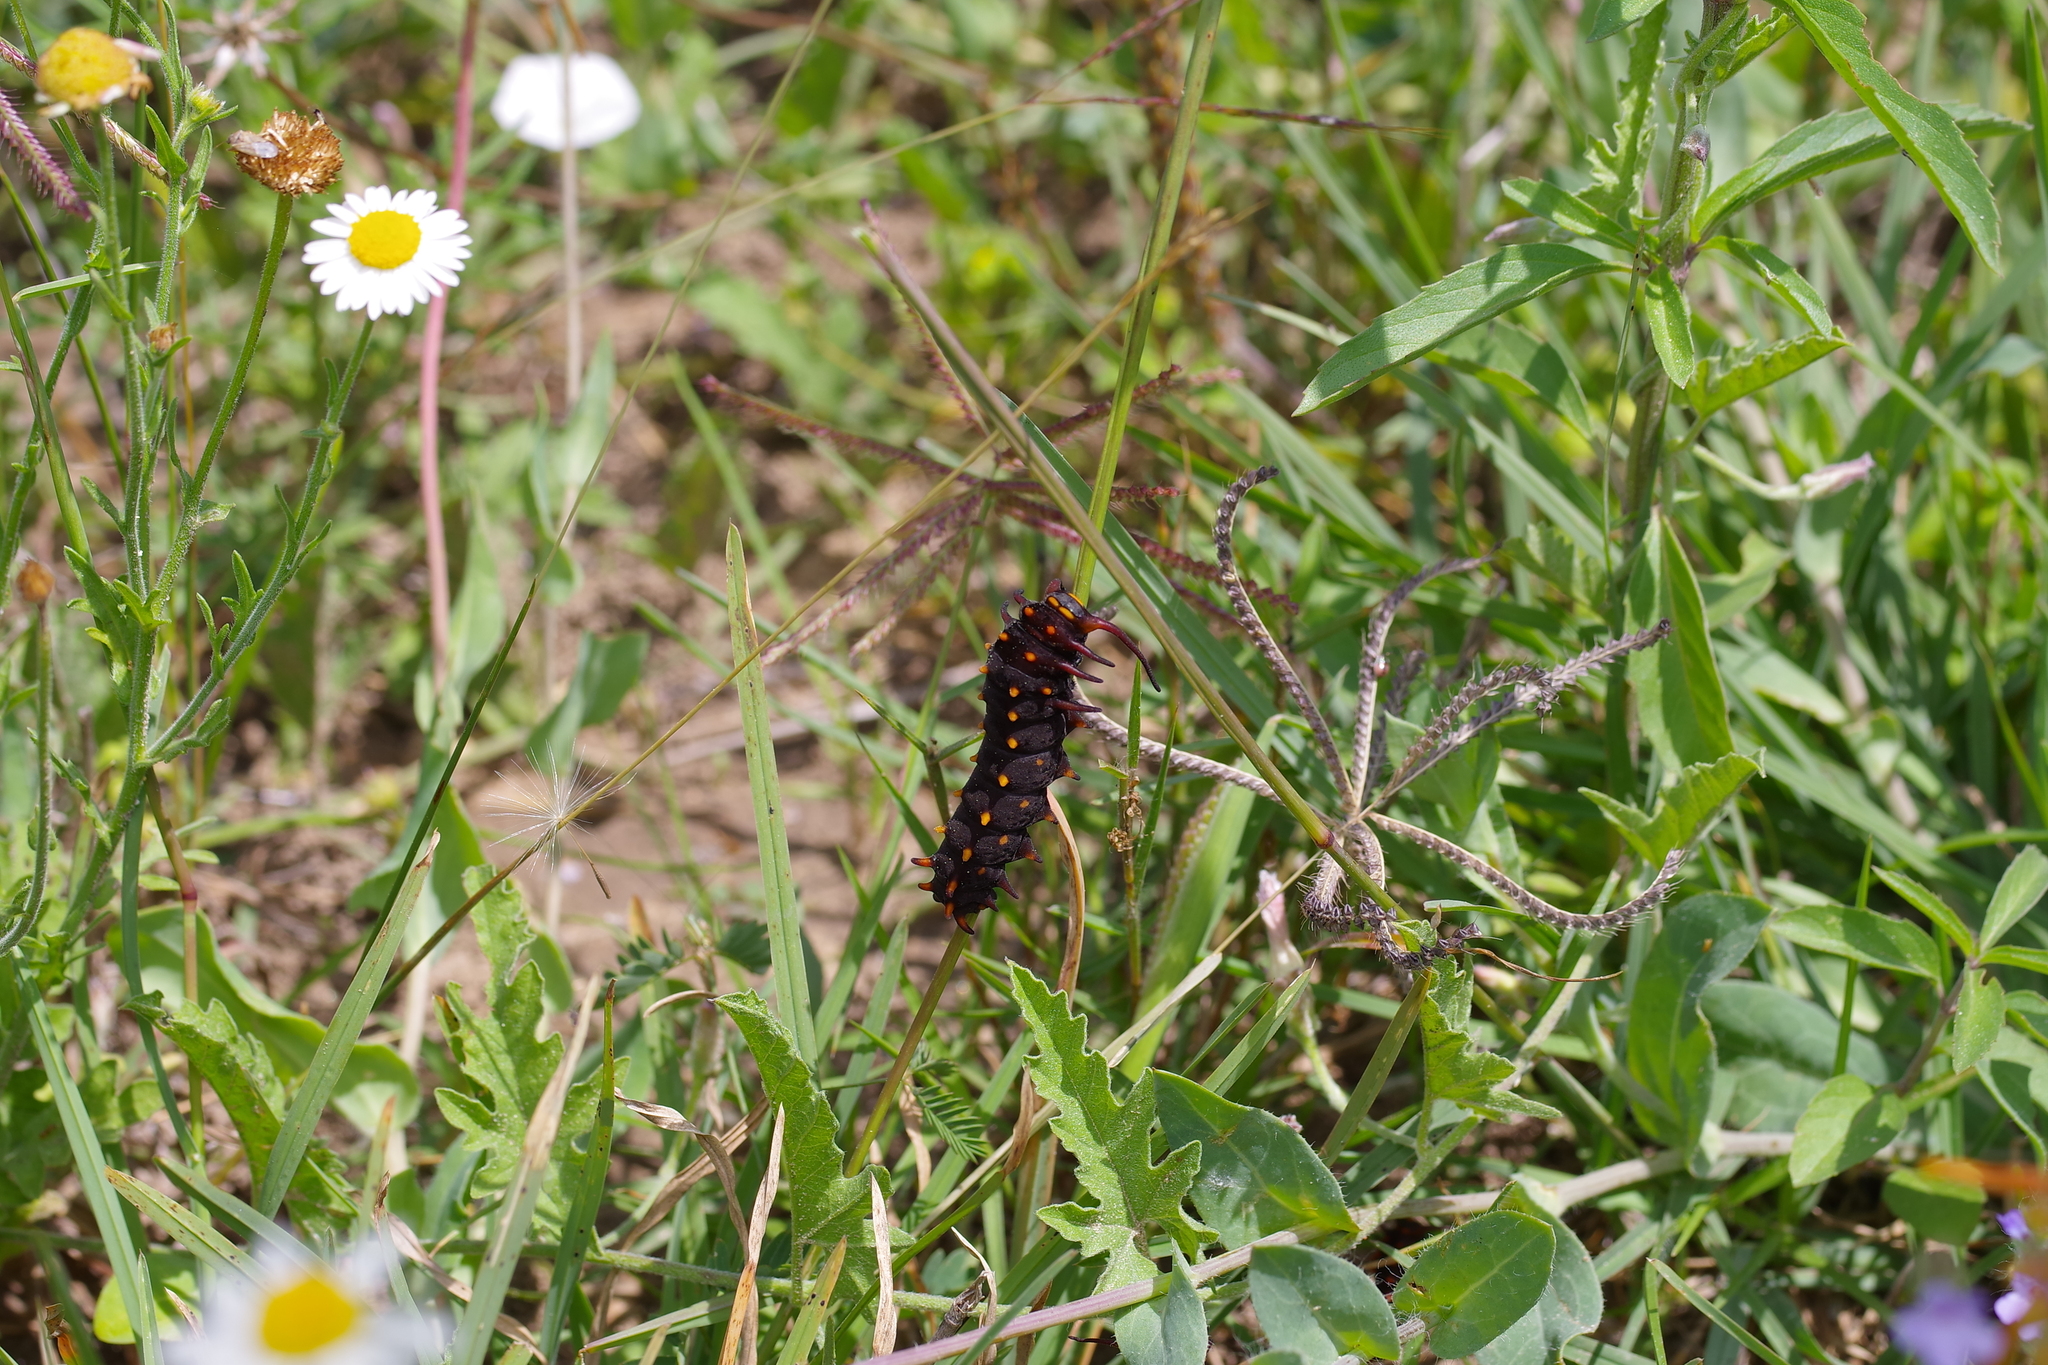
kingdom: Animalia
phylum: Arthropoda
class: Insecta
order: Lepidoptera
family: Papilionidae
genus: Battus
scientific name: Battus philenor
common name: Pipevine swallowtail
